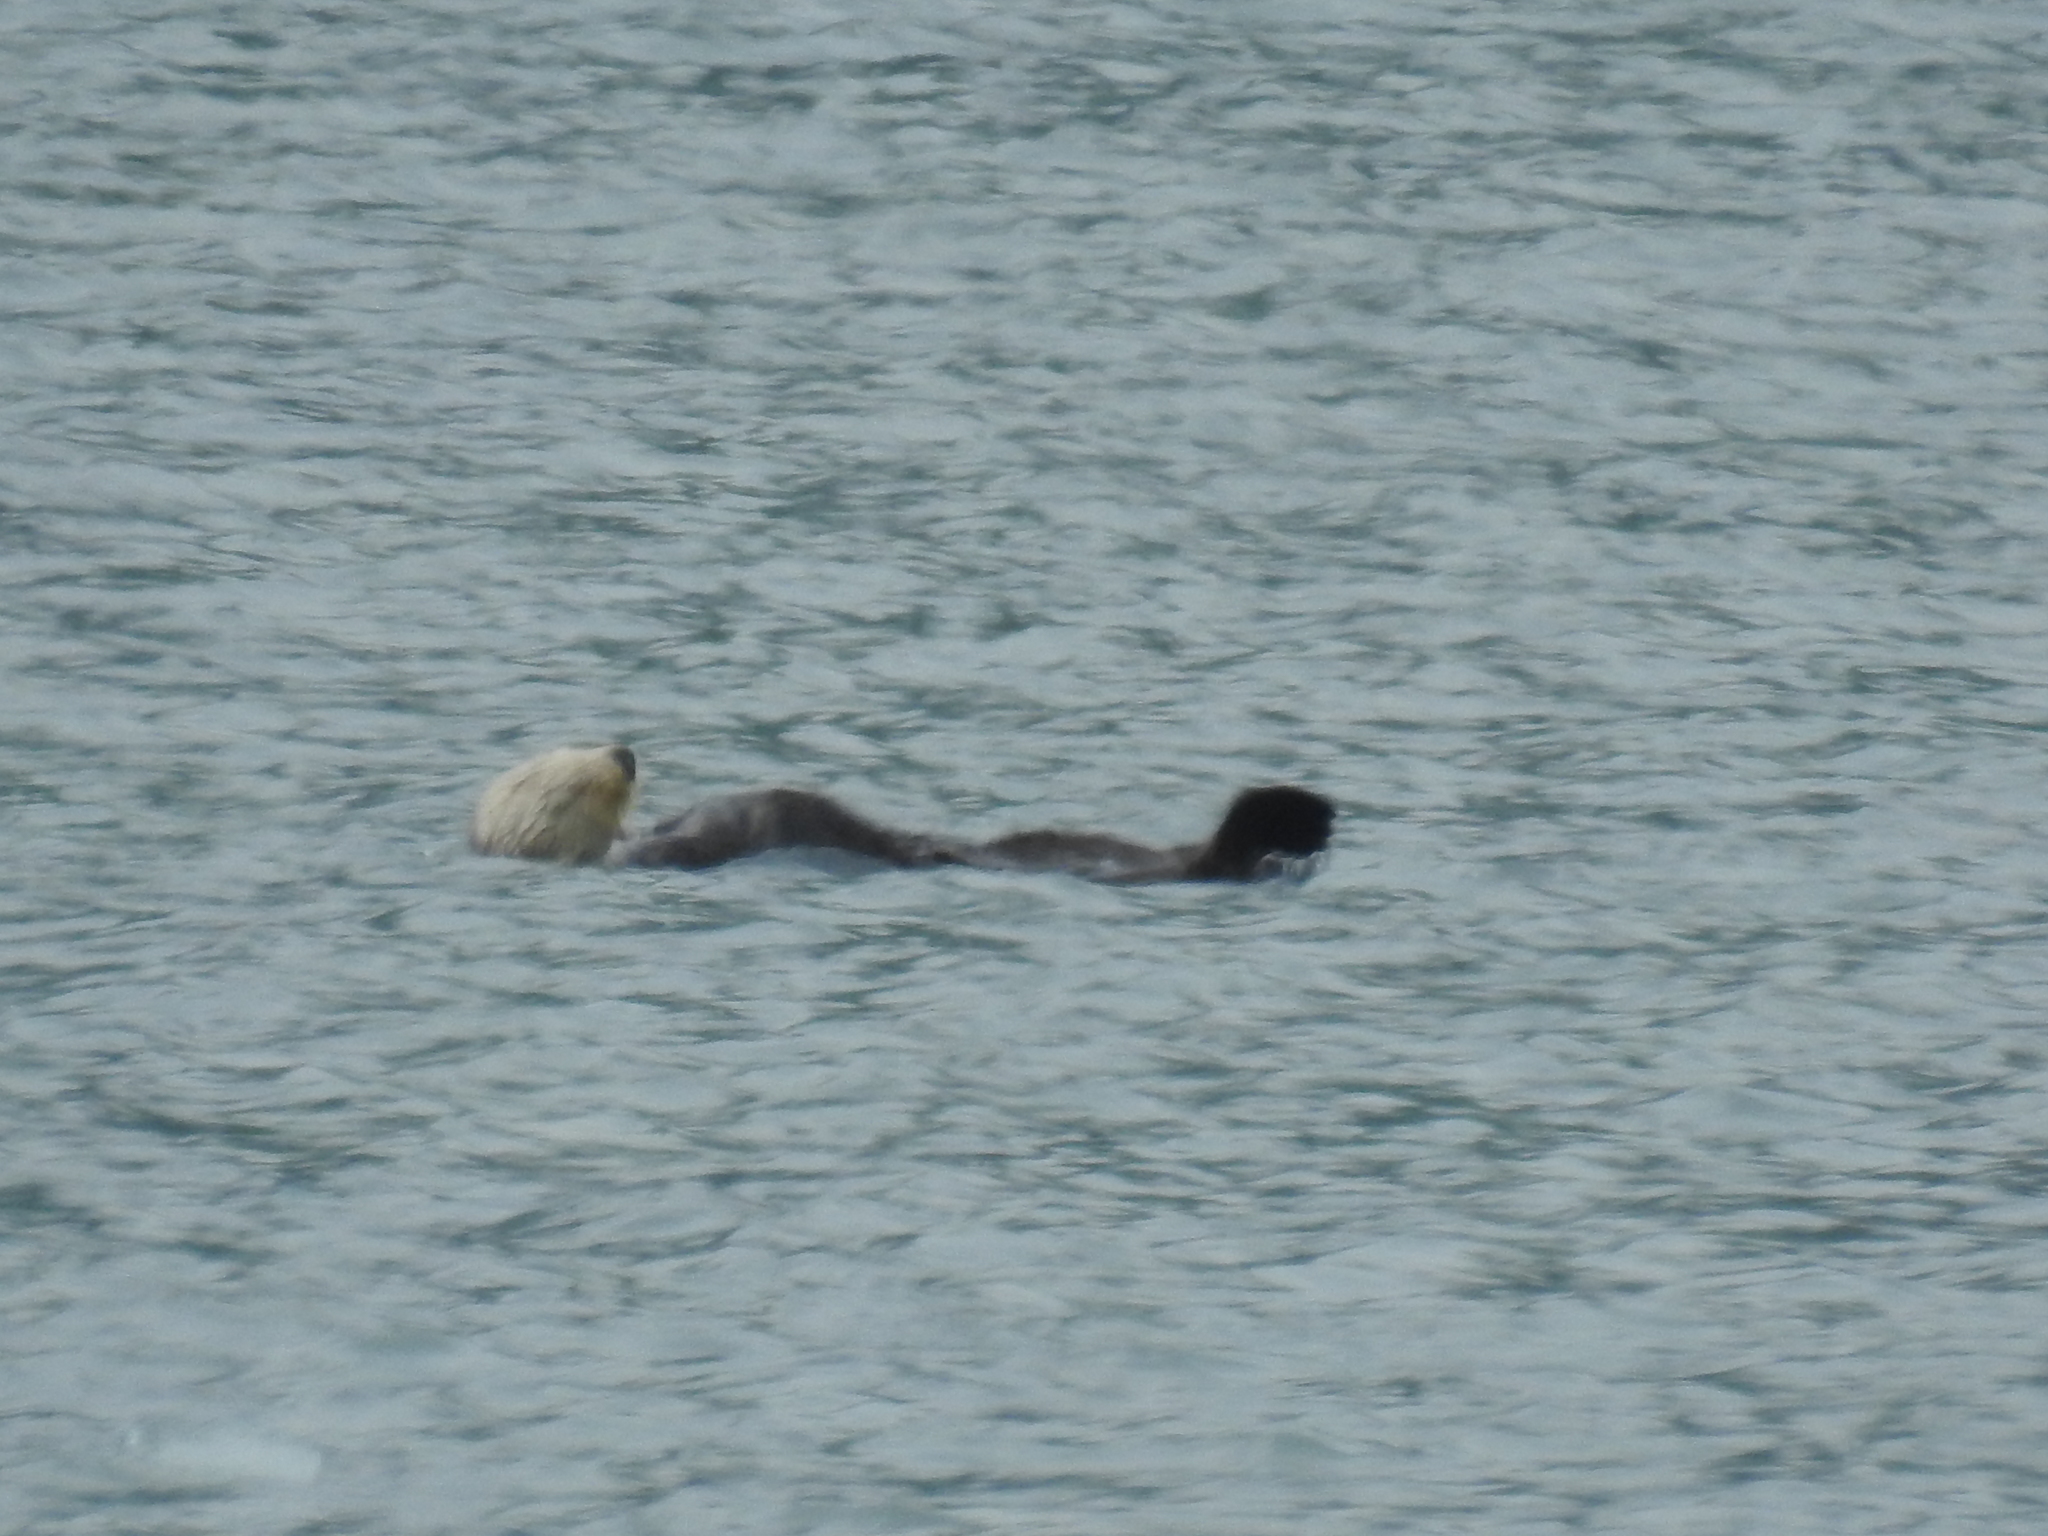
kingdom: Animalia
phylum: Chordata
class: Mammalia
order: Carnivora
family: Mustelidae
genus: Enhydra
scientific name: Enhydra lutris
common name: Sea otter
